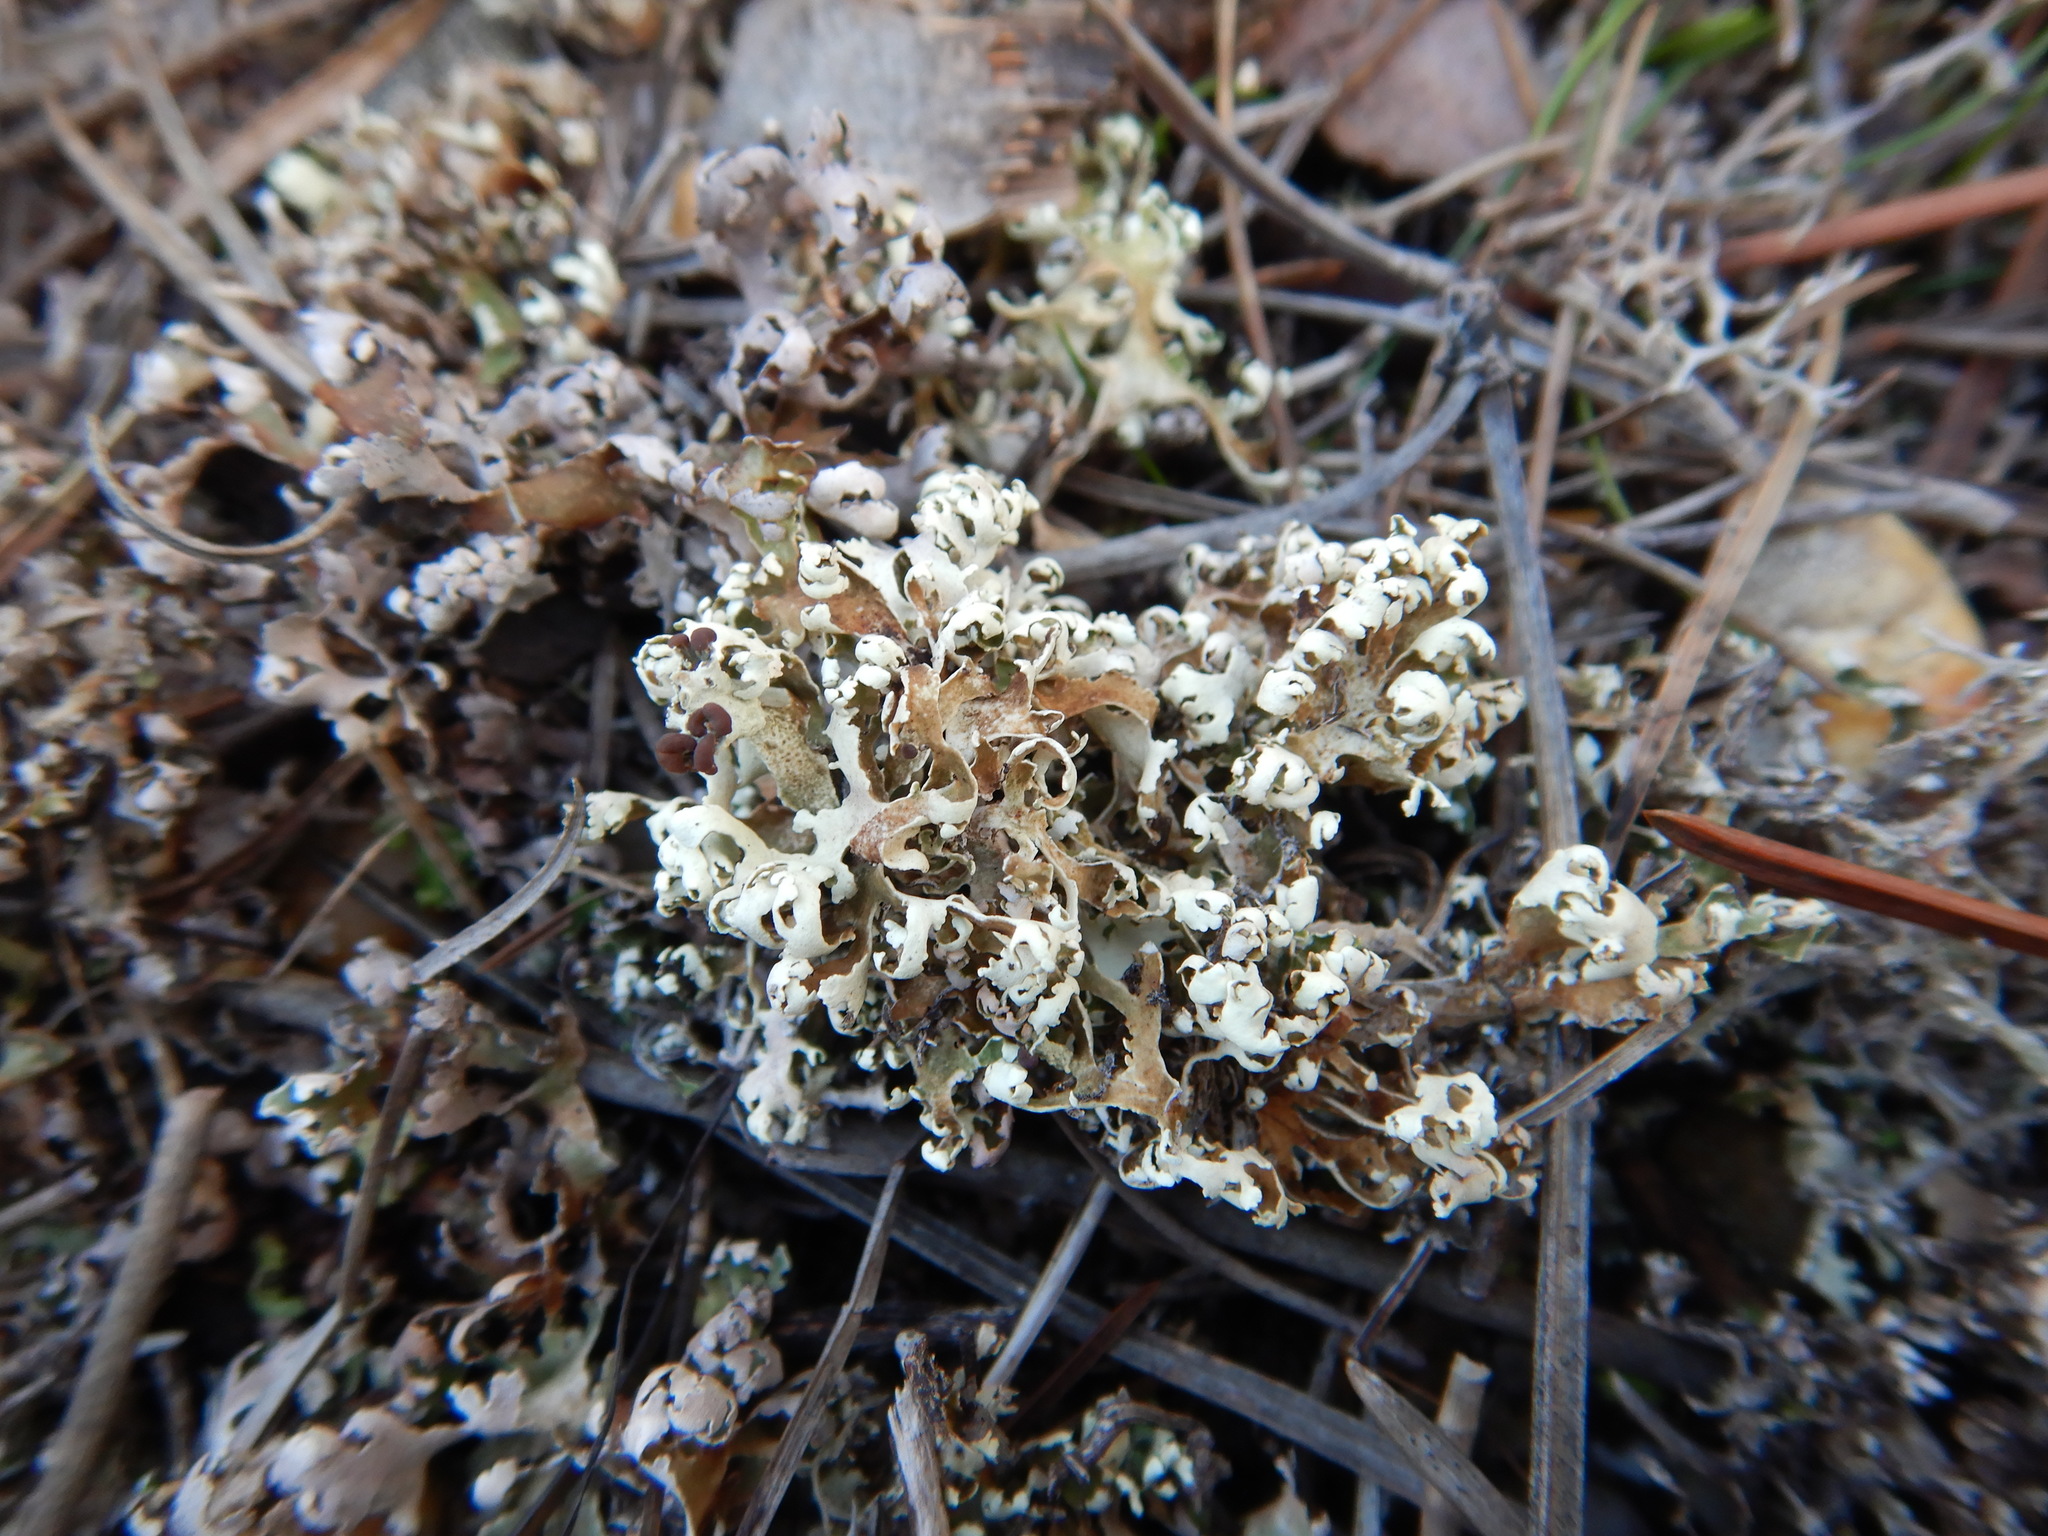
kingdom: Fungi
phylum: Ascomycota
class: Lecanoromycetes
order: Lecanorales
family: Cladoniaceae
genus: Cladonia
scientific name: Cladonia foliacea
